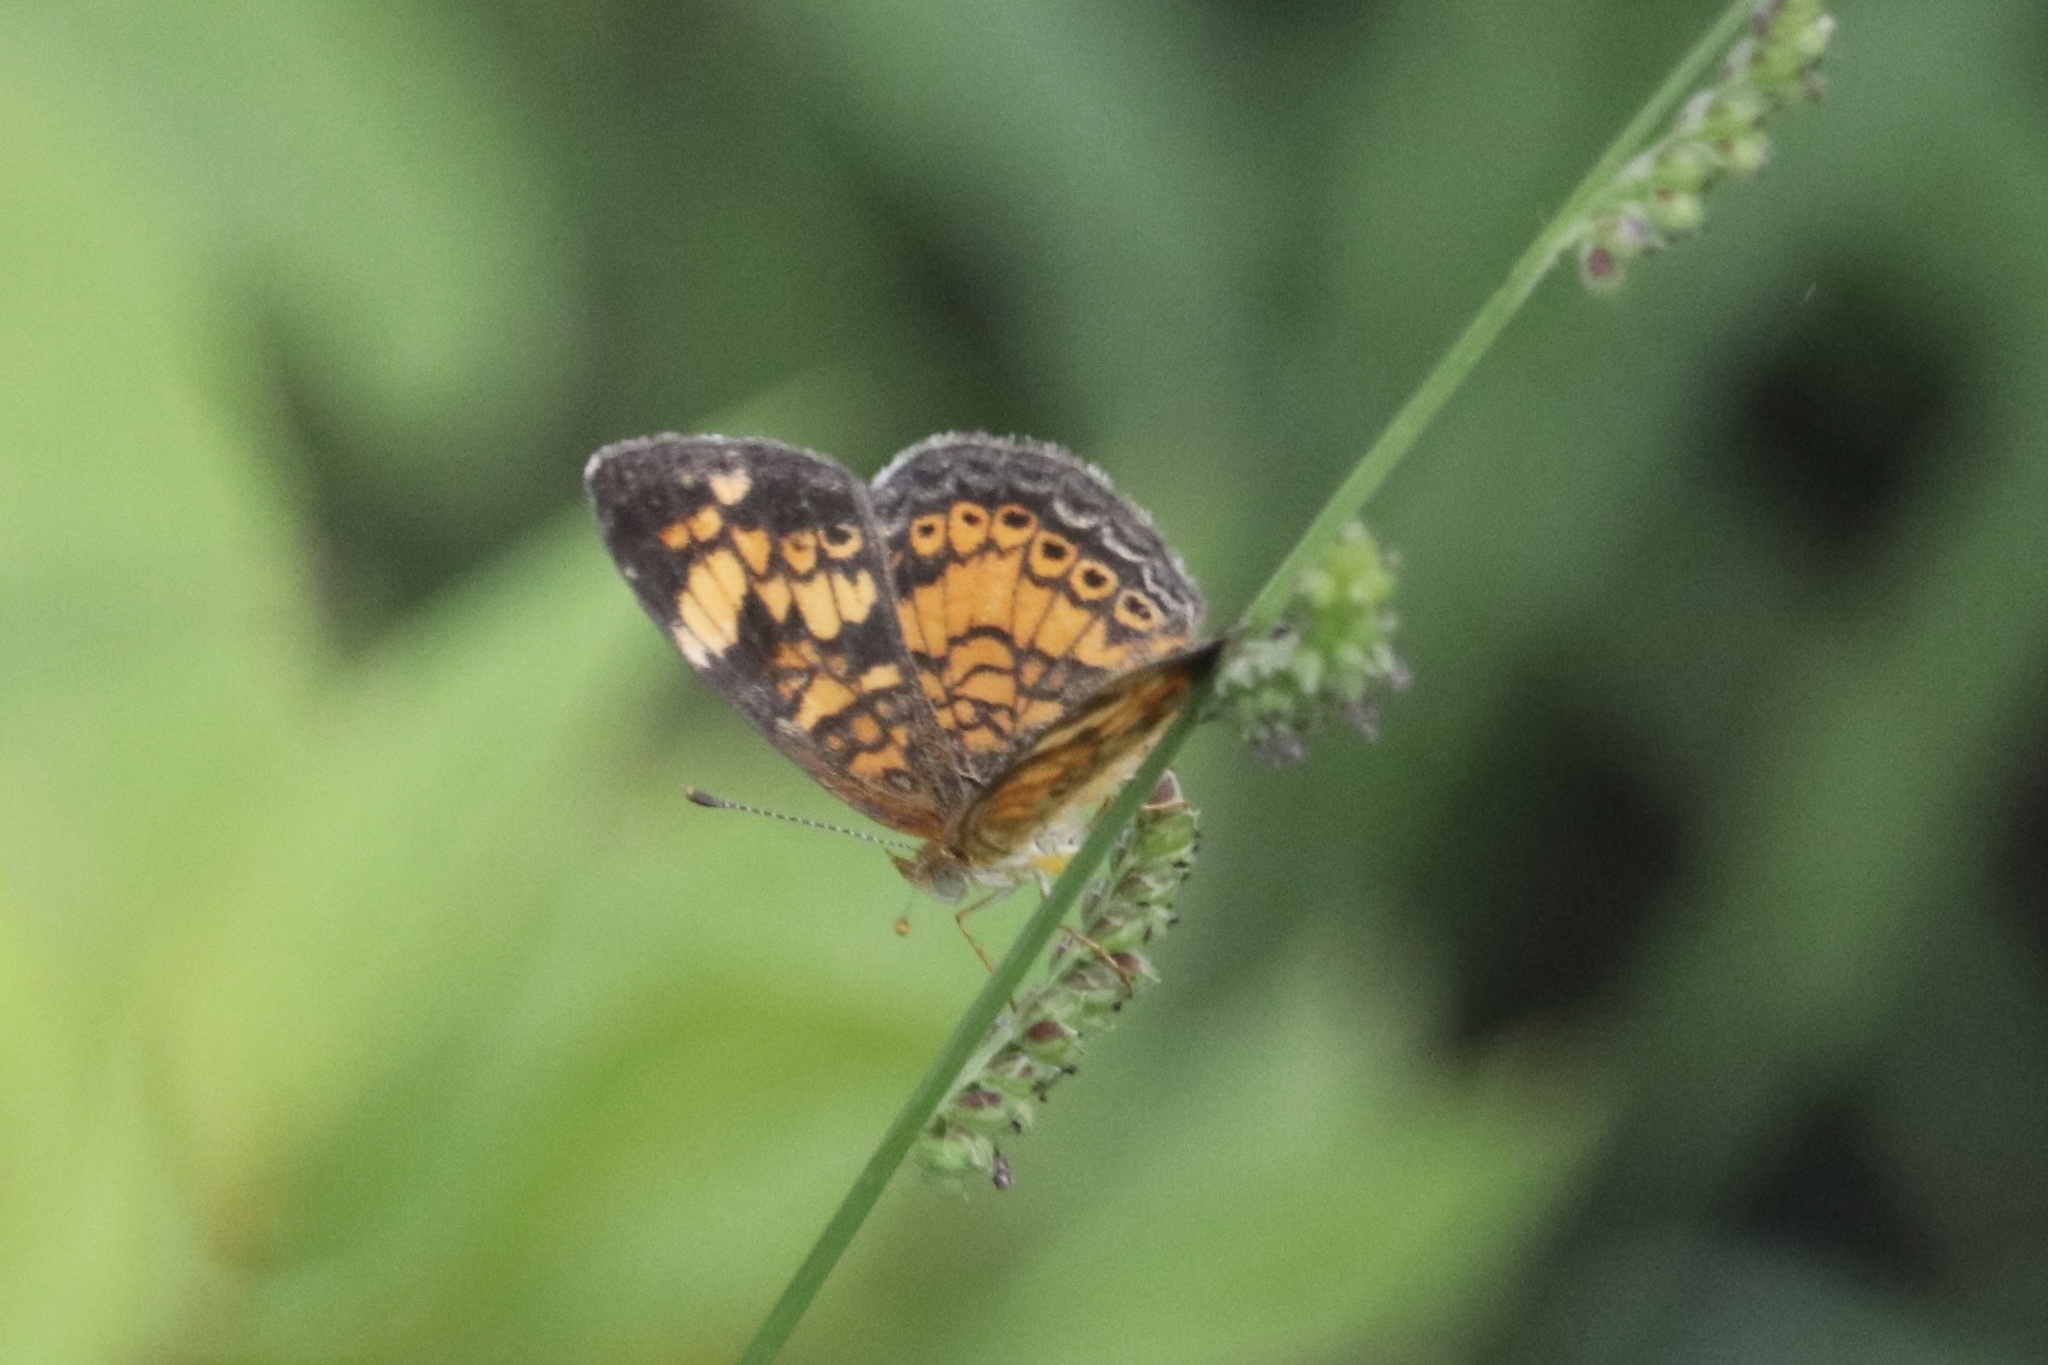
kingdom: Animalia
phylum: Arthropoda
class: Insecta
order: Lepidoptera
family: Nymphalidae
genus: Phyciodes
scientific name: Phyciodes tharos
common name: Pearl crescent
